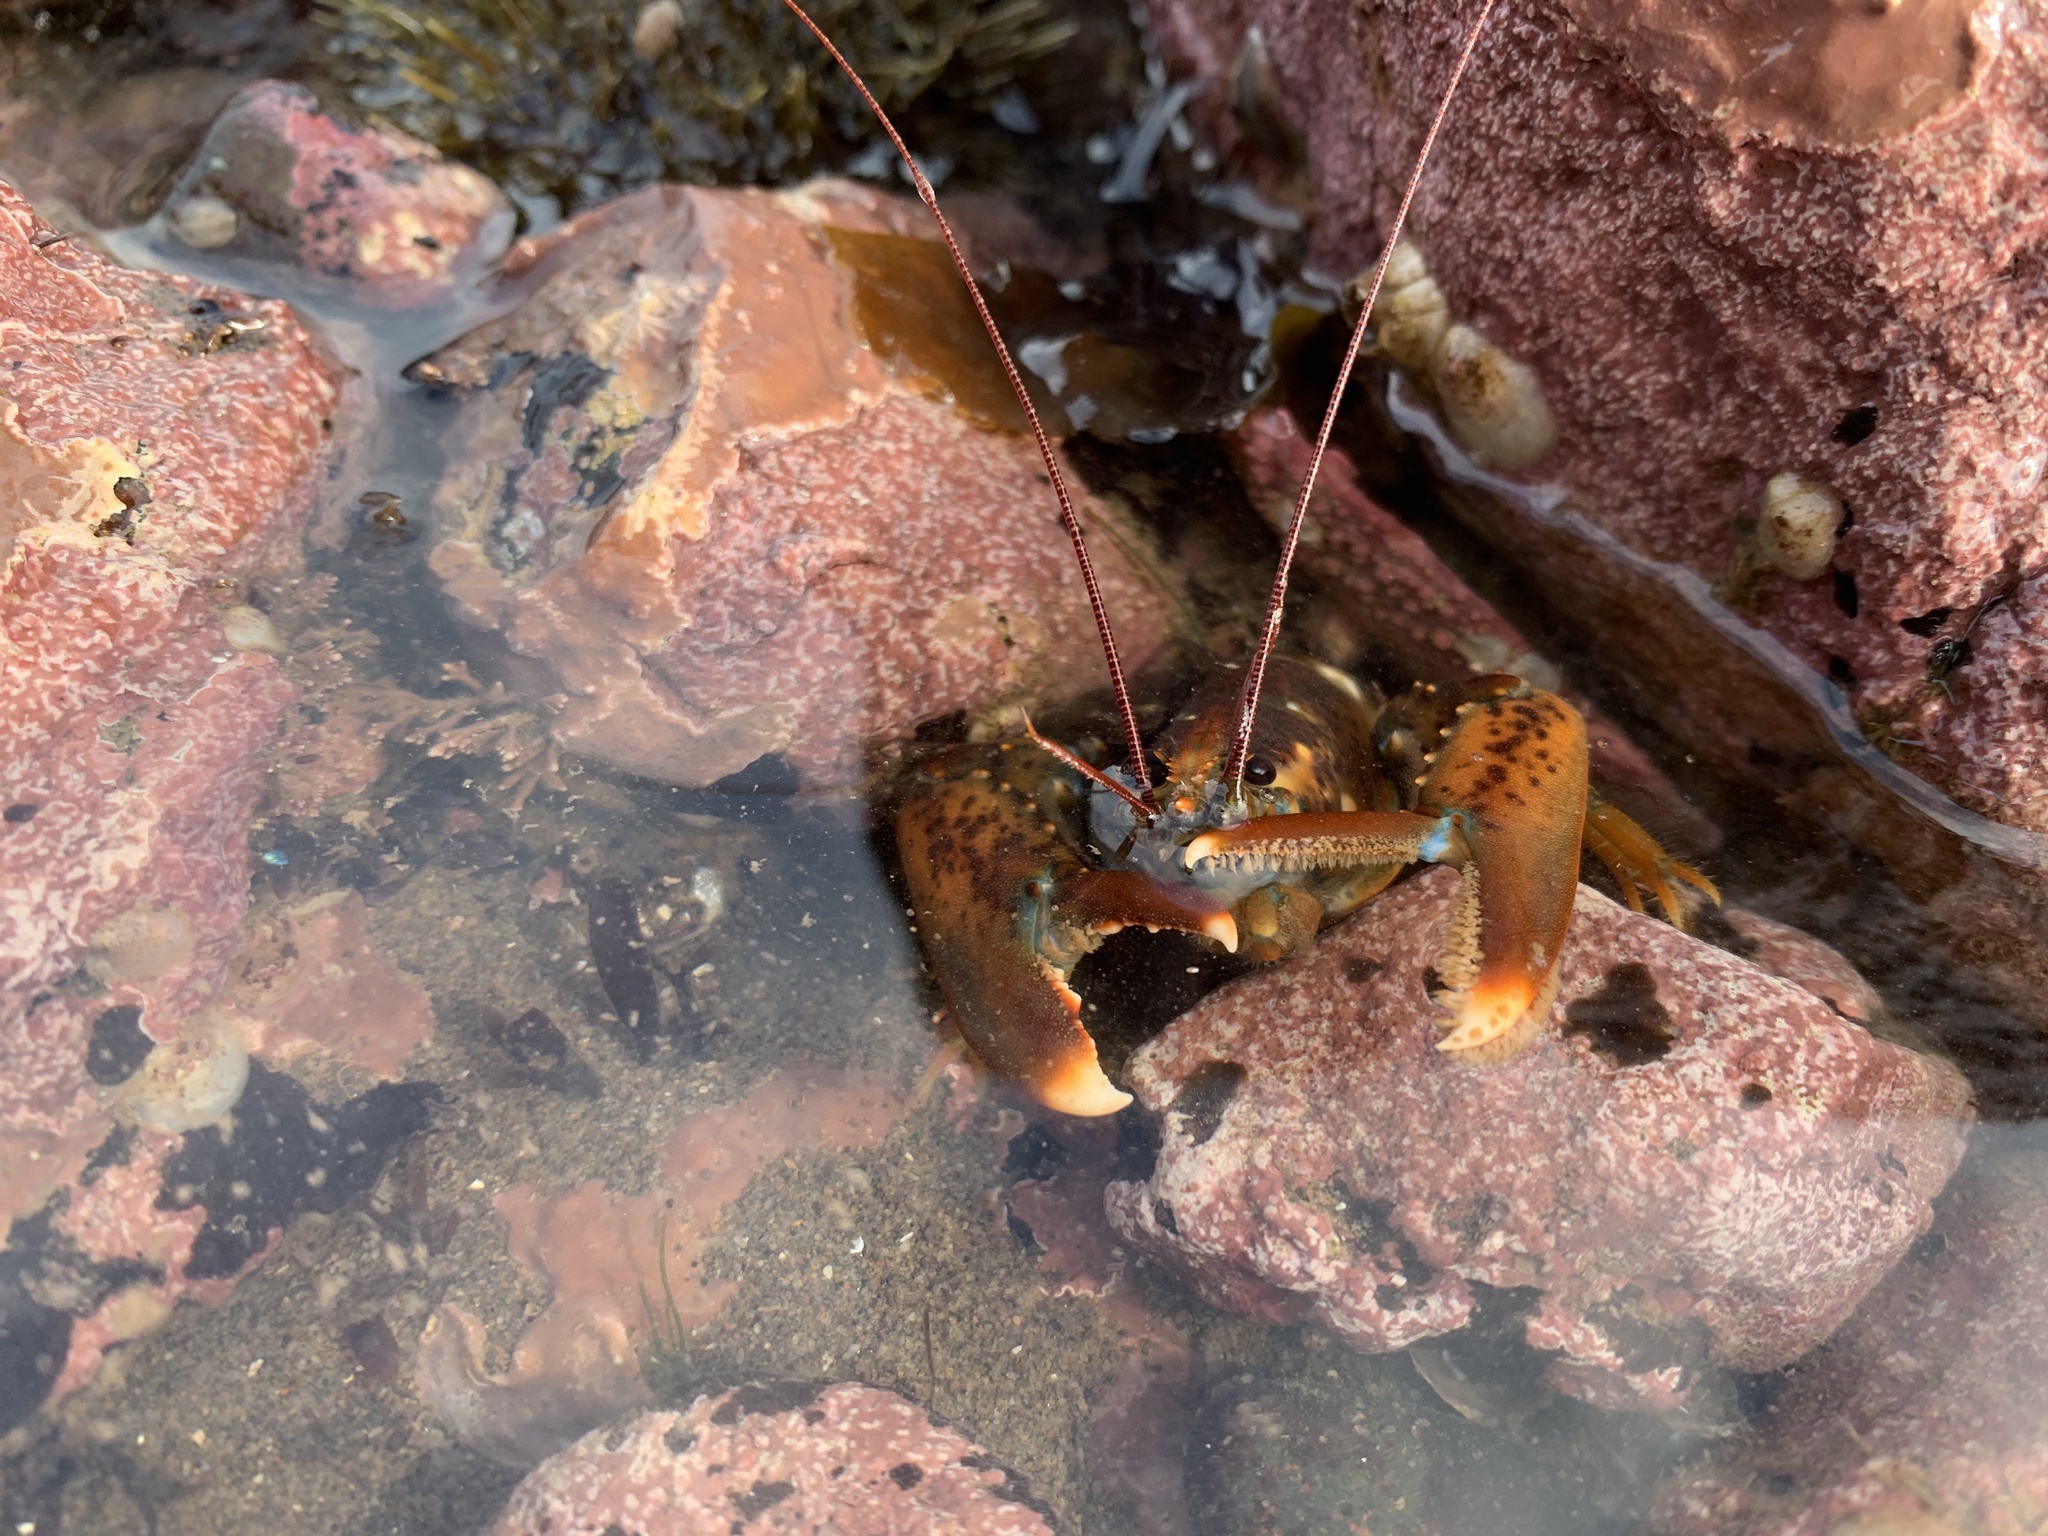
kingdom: Animalia
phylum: Arthropoda
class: Malacostraca
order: Decapoda
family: Nephropidae
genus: Homarus
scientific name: Homarus americanus
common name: American lobster
